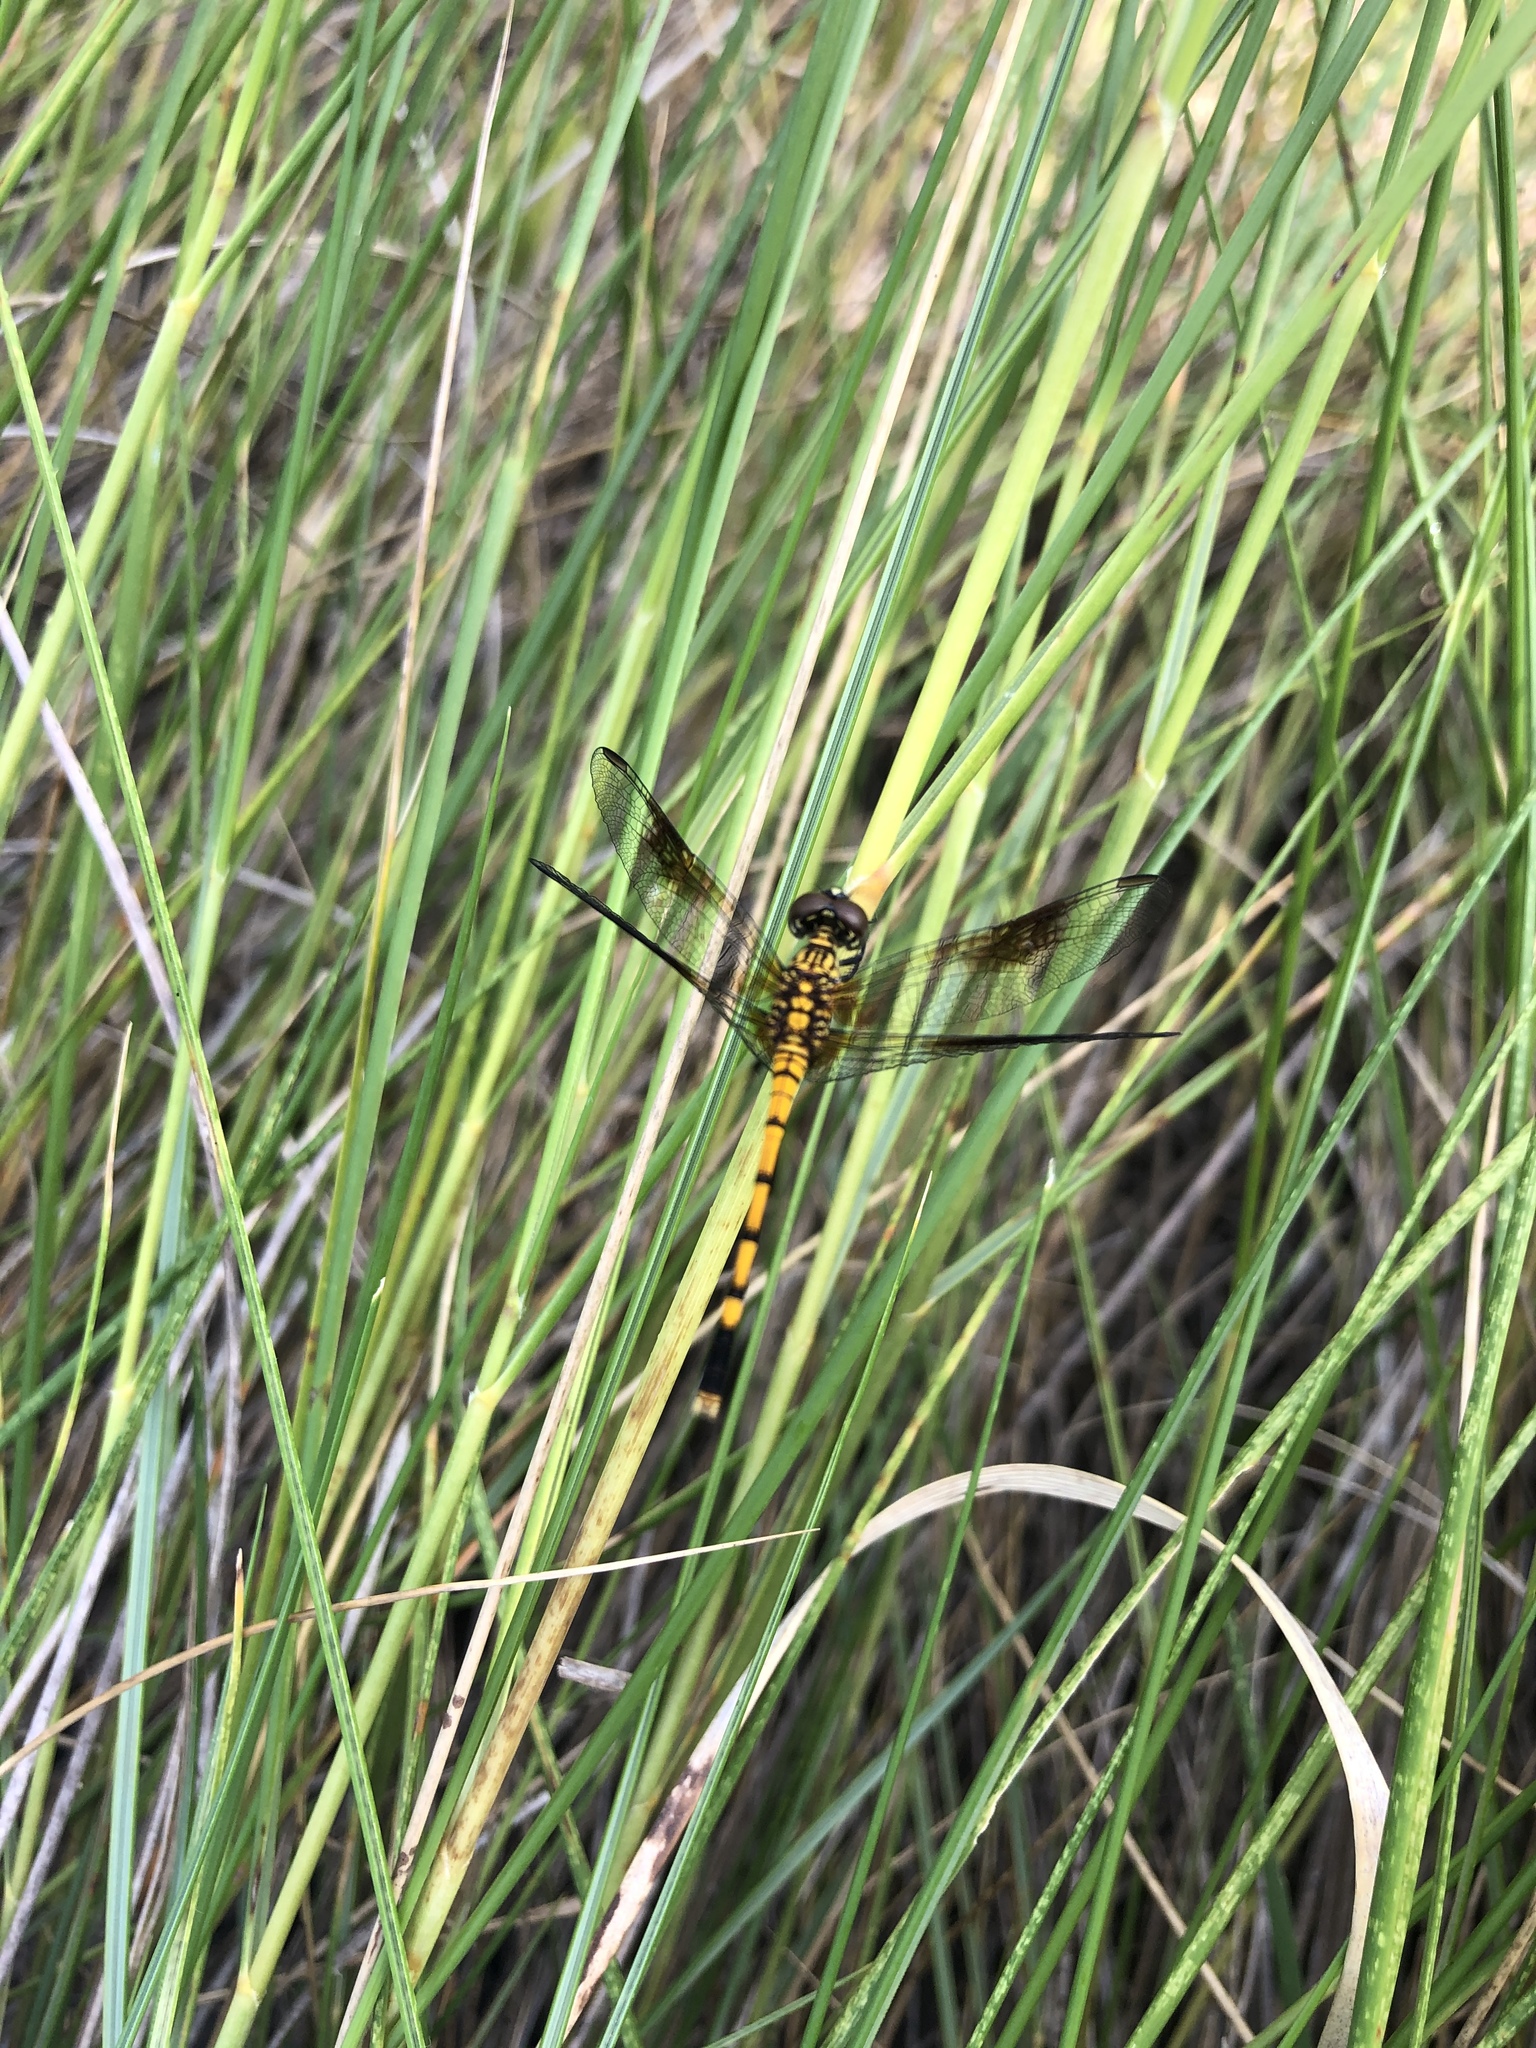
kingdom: Animalia
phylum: Arthropoda
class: Insecta
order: Odonata
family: Libellulidae
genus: Erythrodiplax
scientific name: Erythrodiplax berenice
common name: Seaside dragonlet
